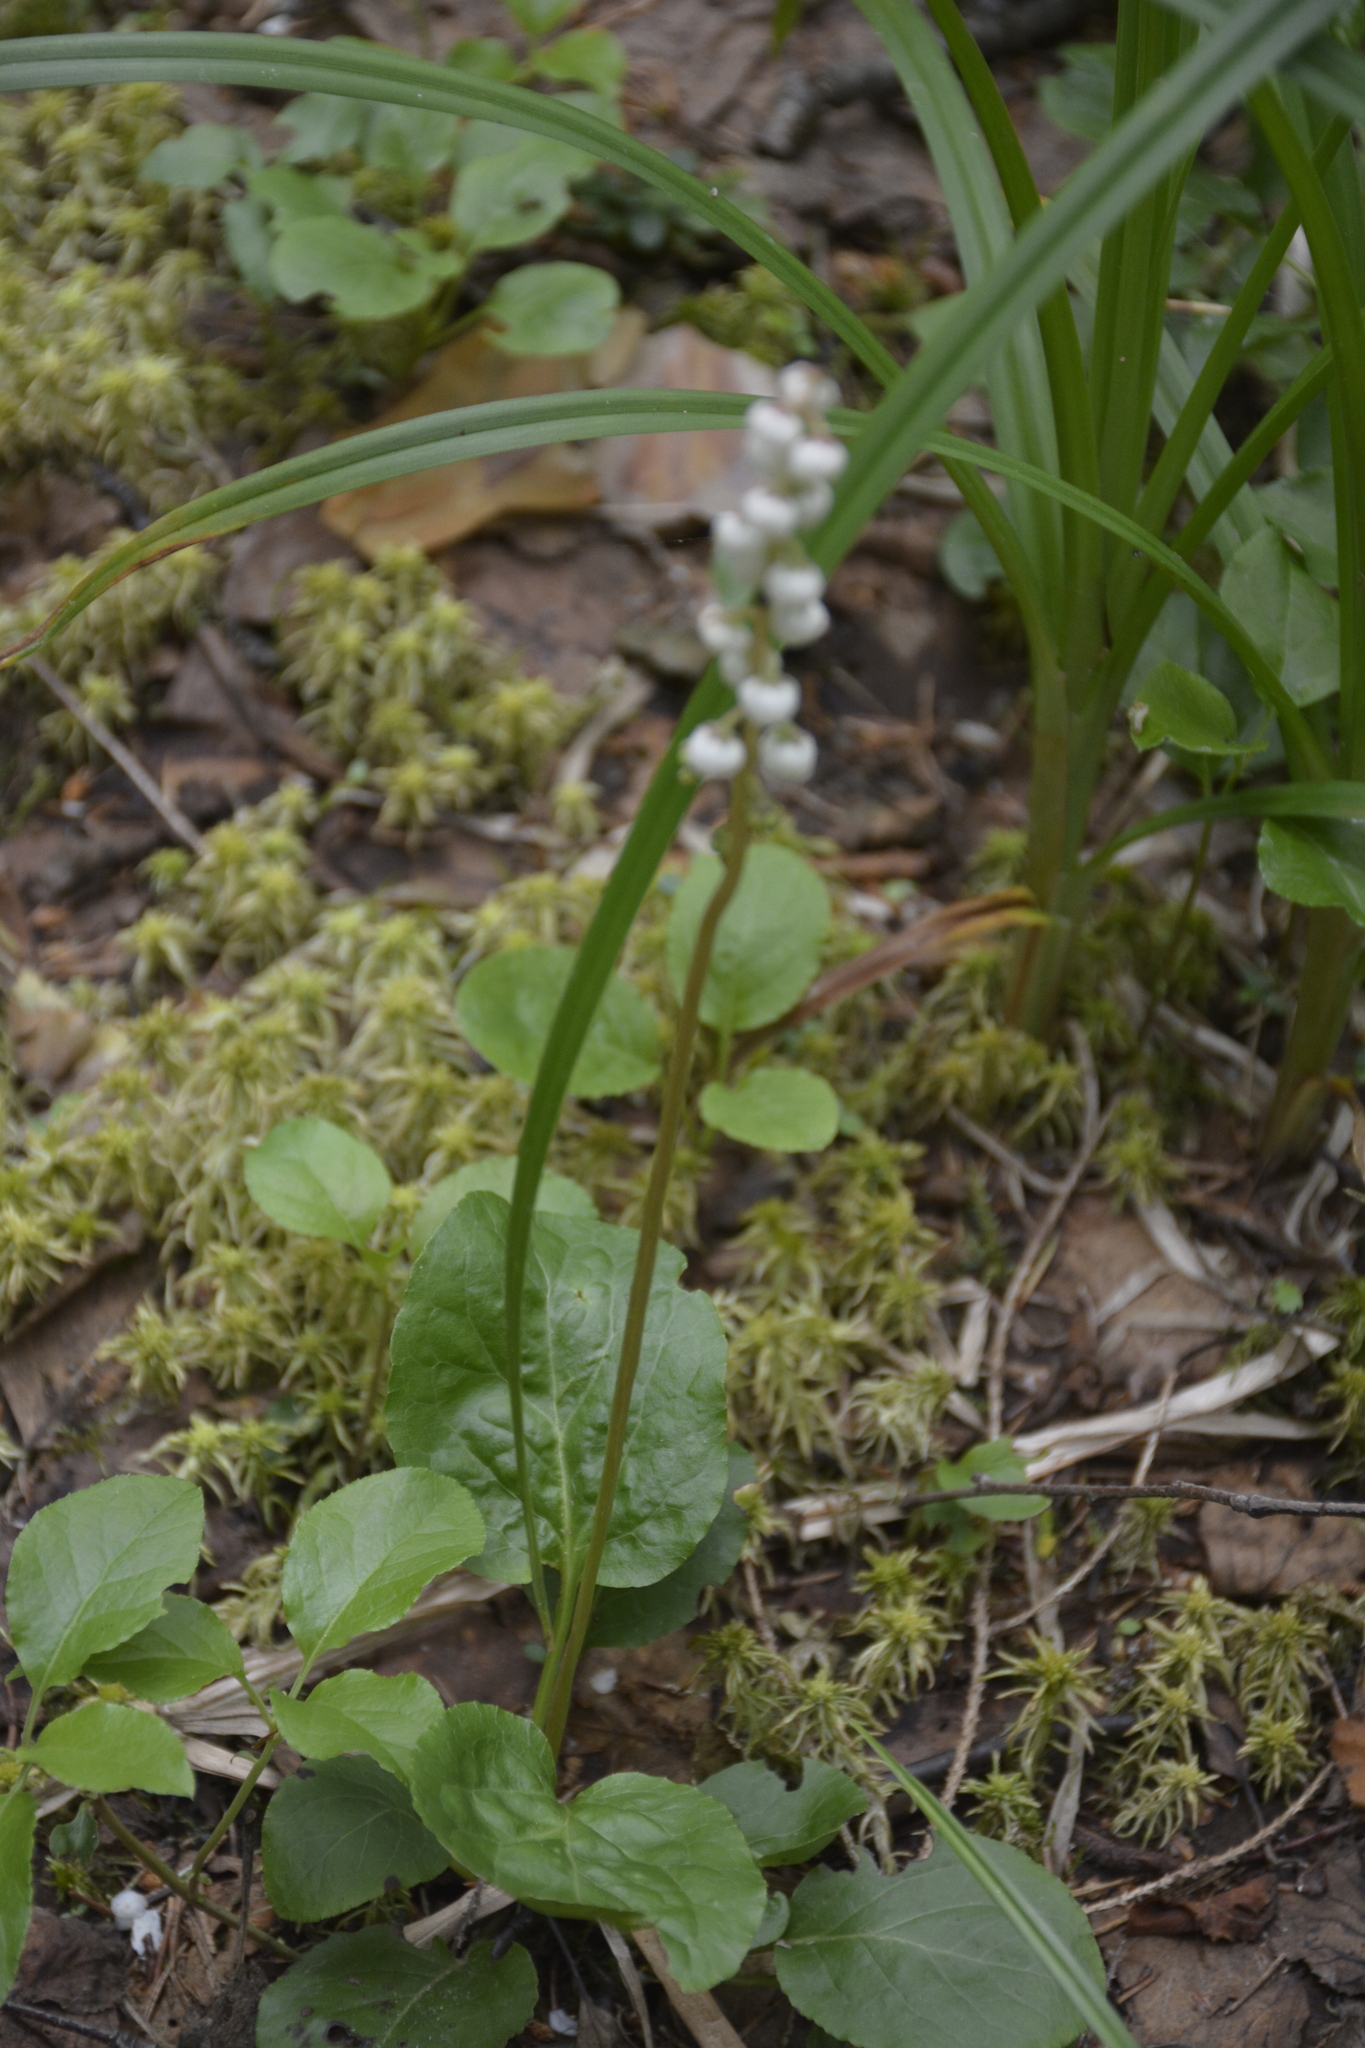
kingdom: Plantae
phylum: Tracheophyta
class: Magnoliopsida
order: Ericales
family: Ericaceae
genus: Pyrola
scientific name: Pyrola minor
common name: Common wintergreen
